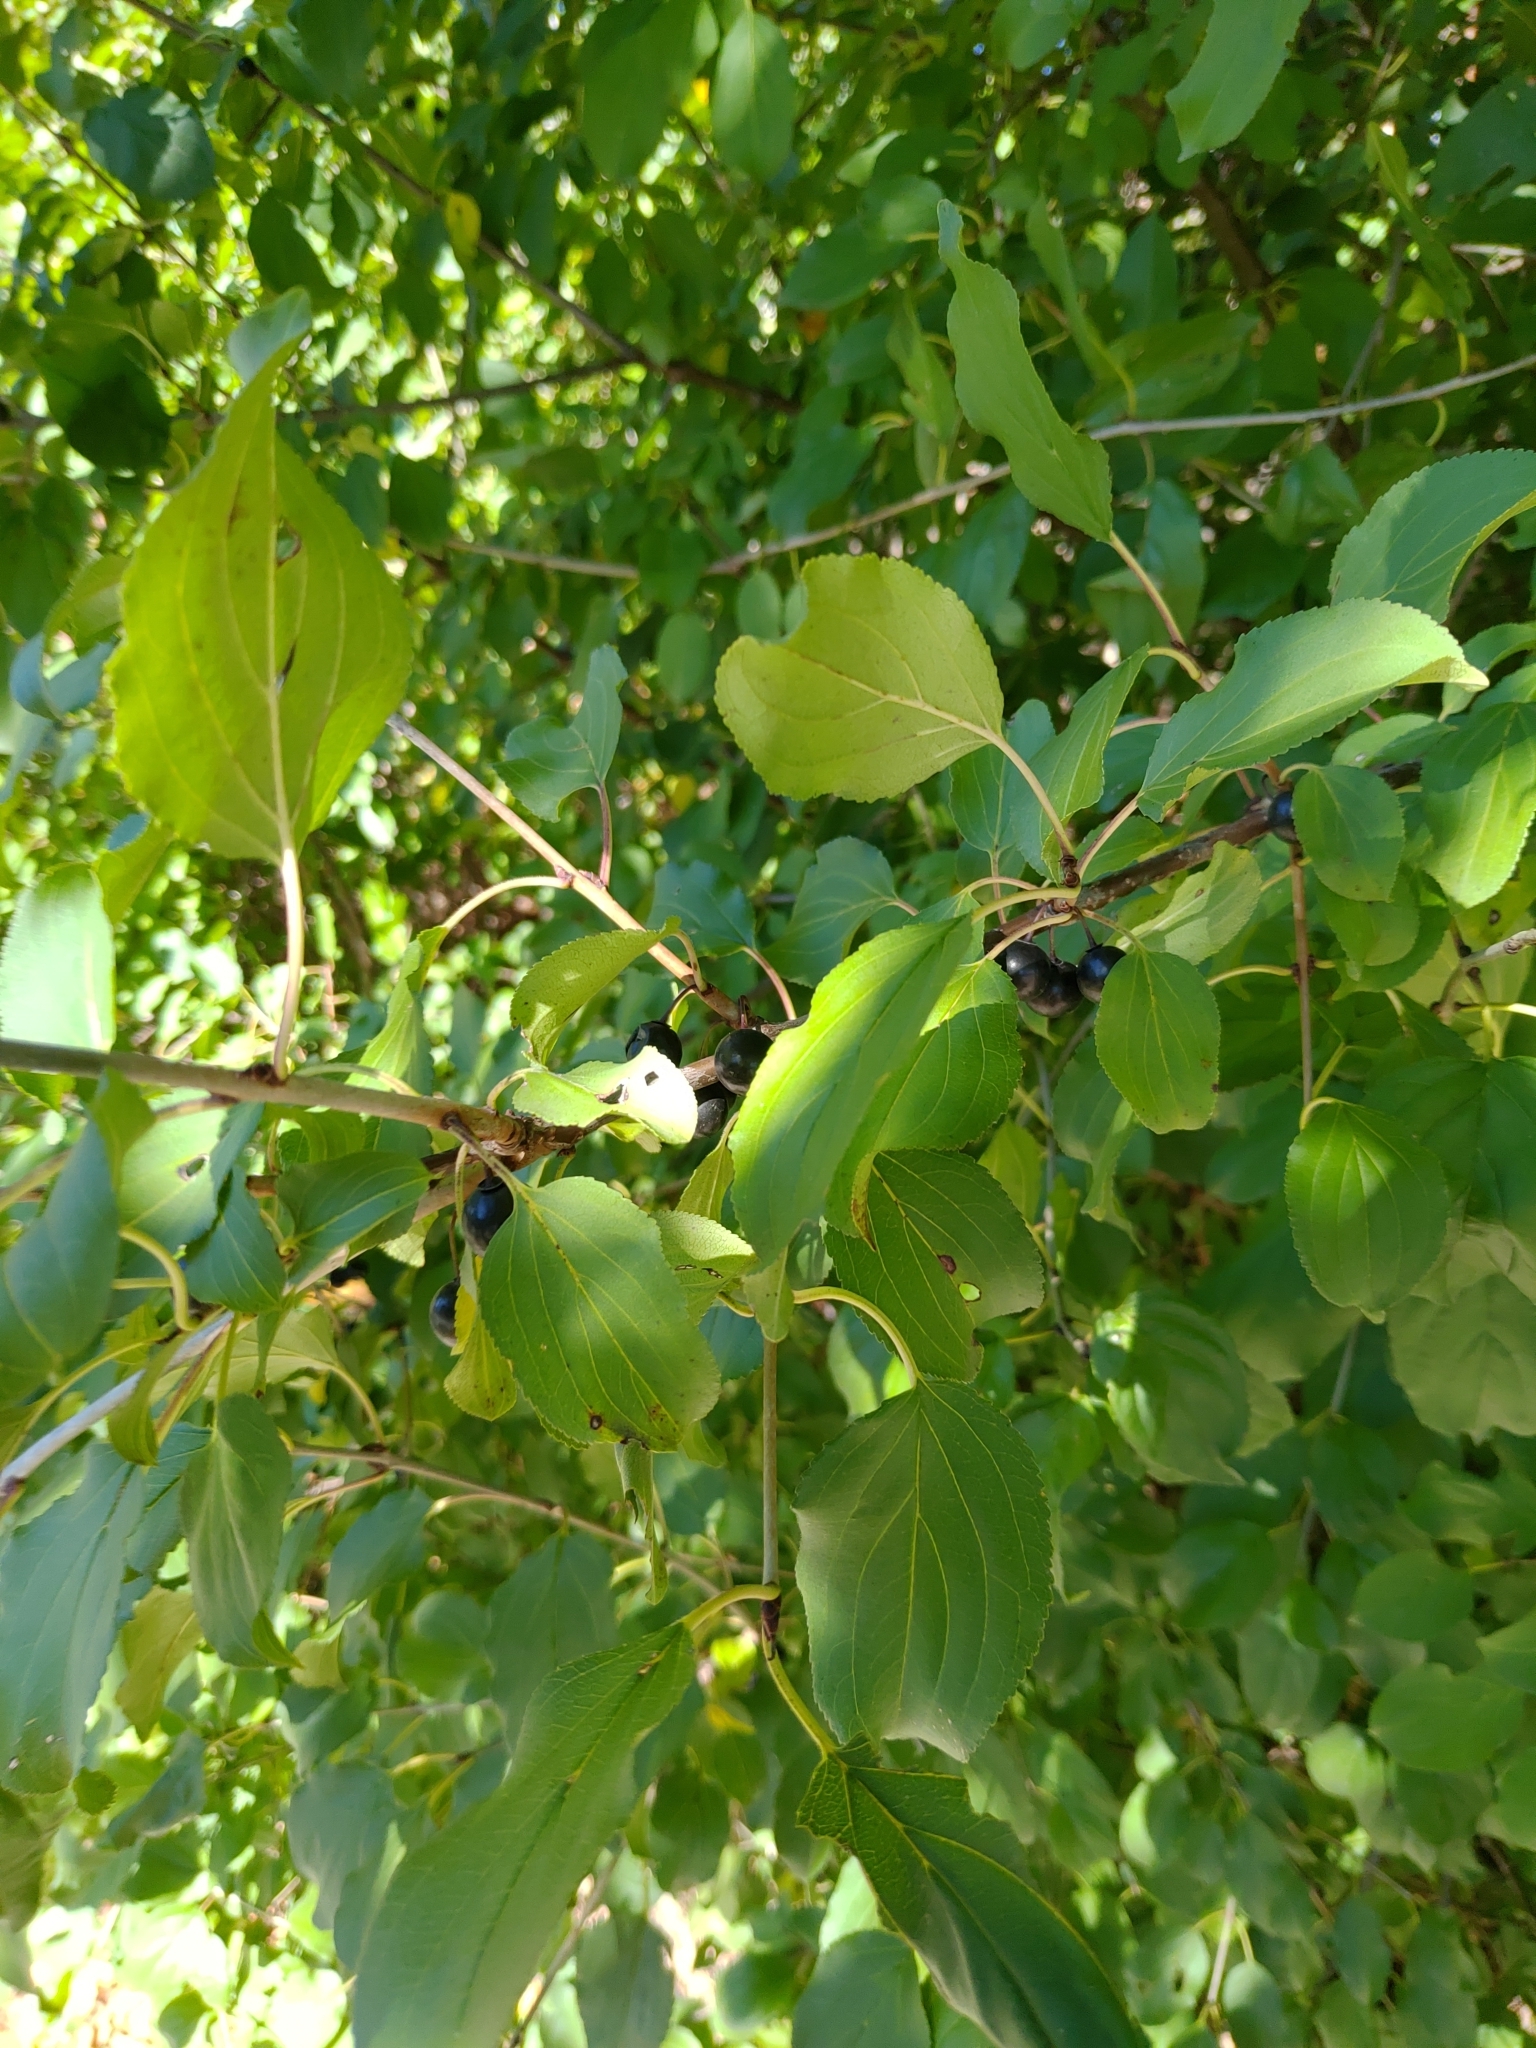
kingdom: Plantae
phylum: Tracheophyta
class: Magnoliopsida
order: Rosales
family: Rhamnaceae
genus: Rhamnus
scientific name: Rhamnus cathartica
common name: Common buckthorn
